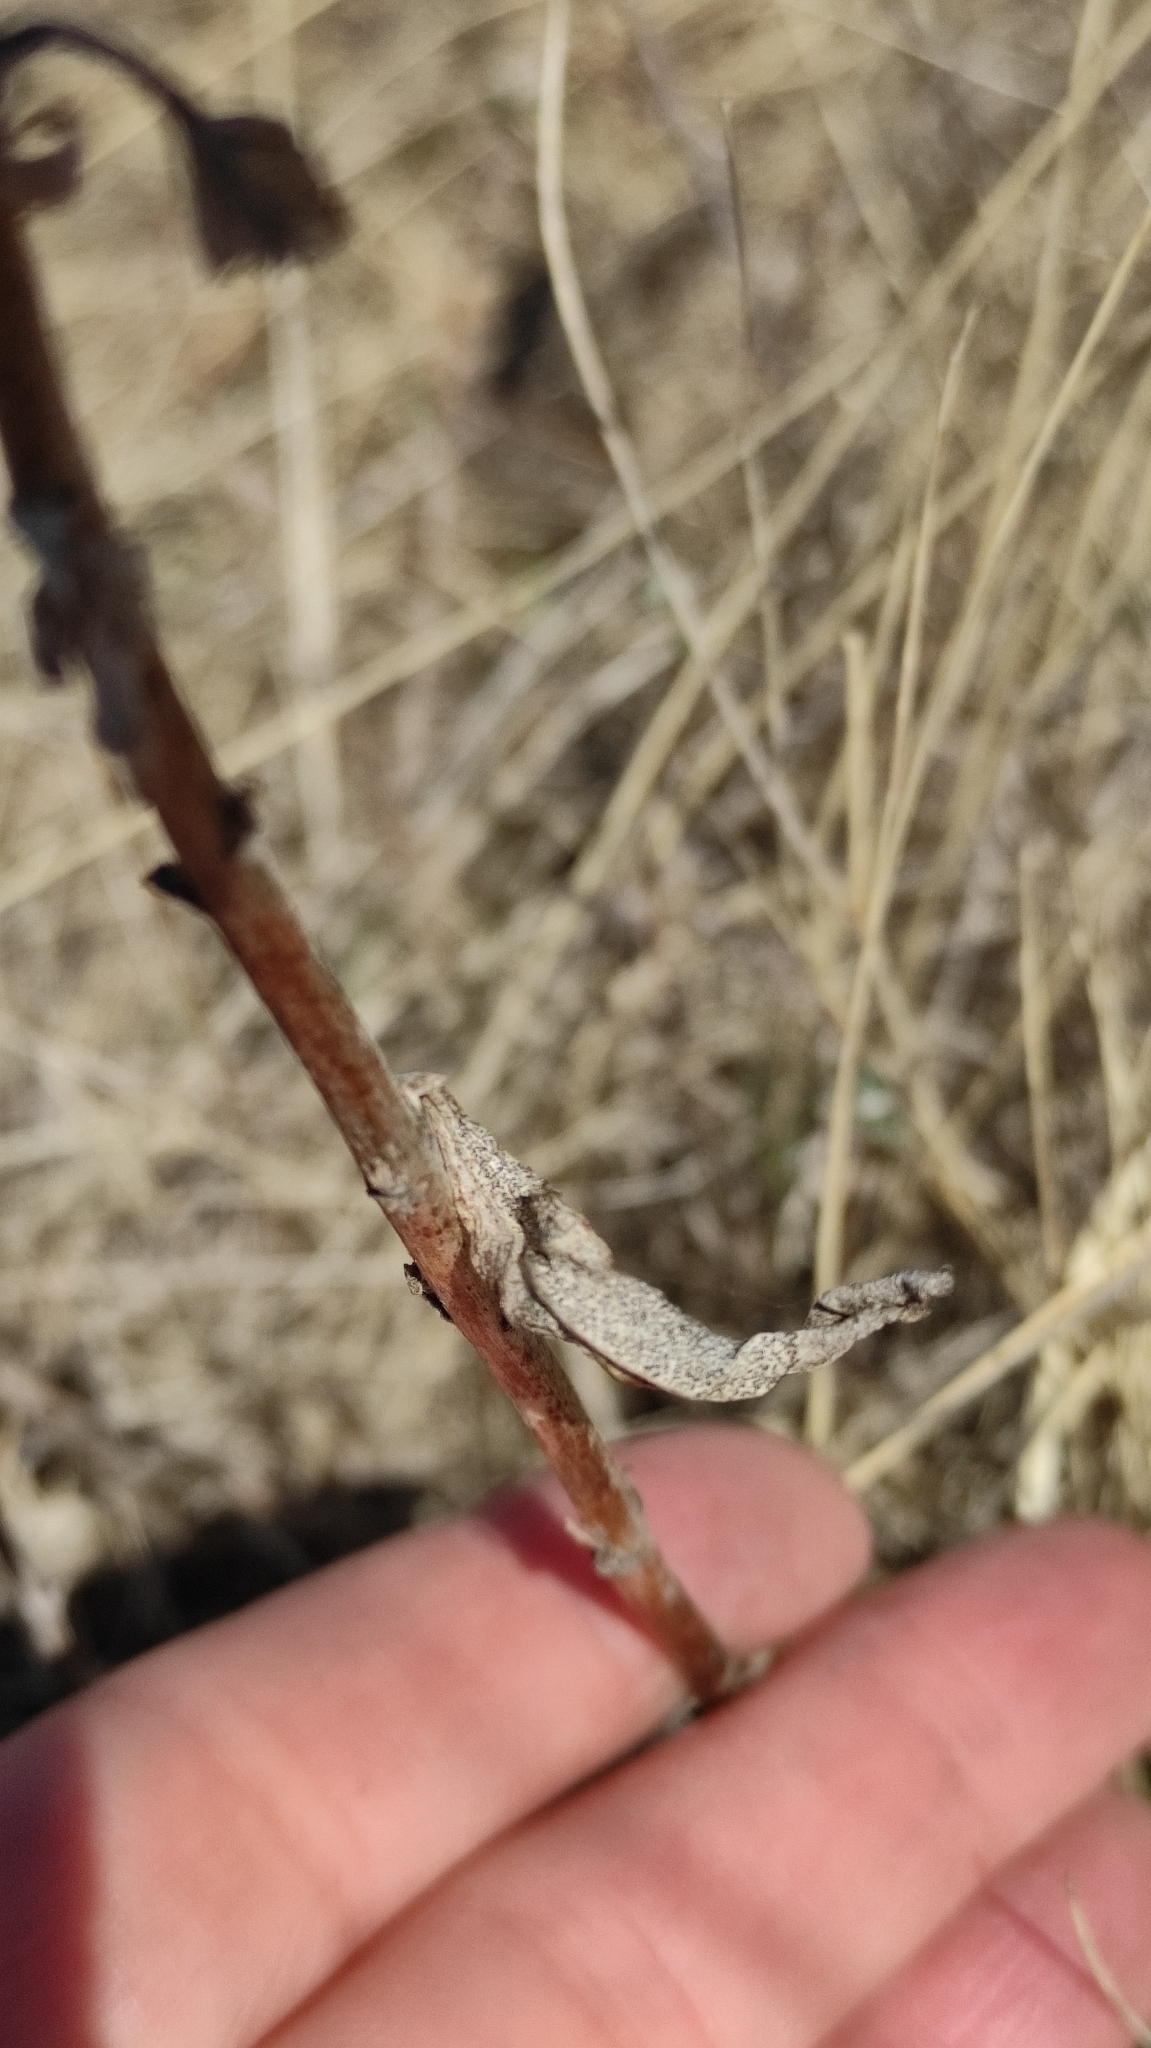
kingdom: Plantae
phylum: Tracheophyta
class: Magnoliopsida
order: Lamiales
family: Plantaginaceae
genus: Veronica
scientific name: Veronica longifolia
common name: Garden speedwell
